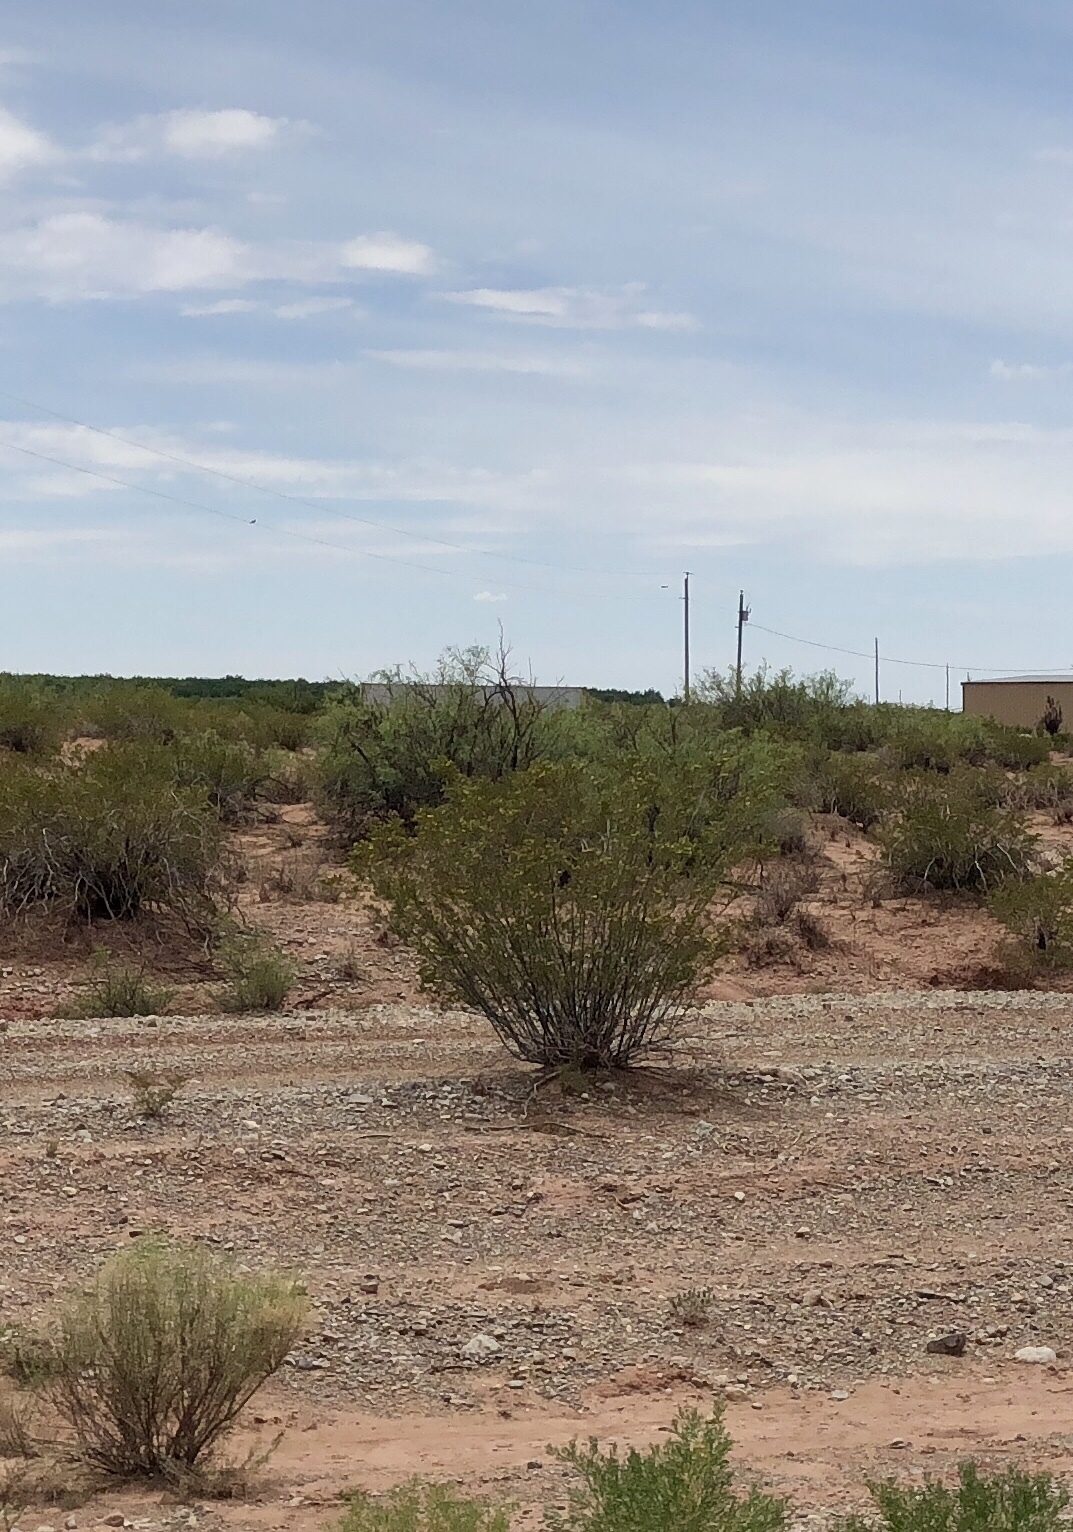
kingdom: Plantae
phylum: Tracheophyta
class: Magnoliopsida
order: Zygophyllales
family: Zygophyllaceae
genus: Larrea
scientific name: Larrea tridentata
